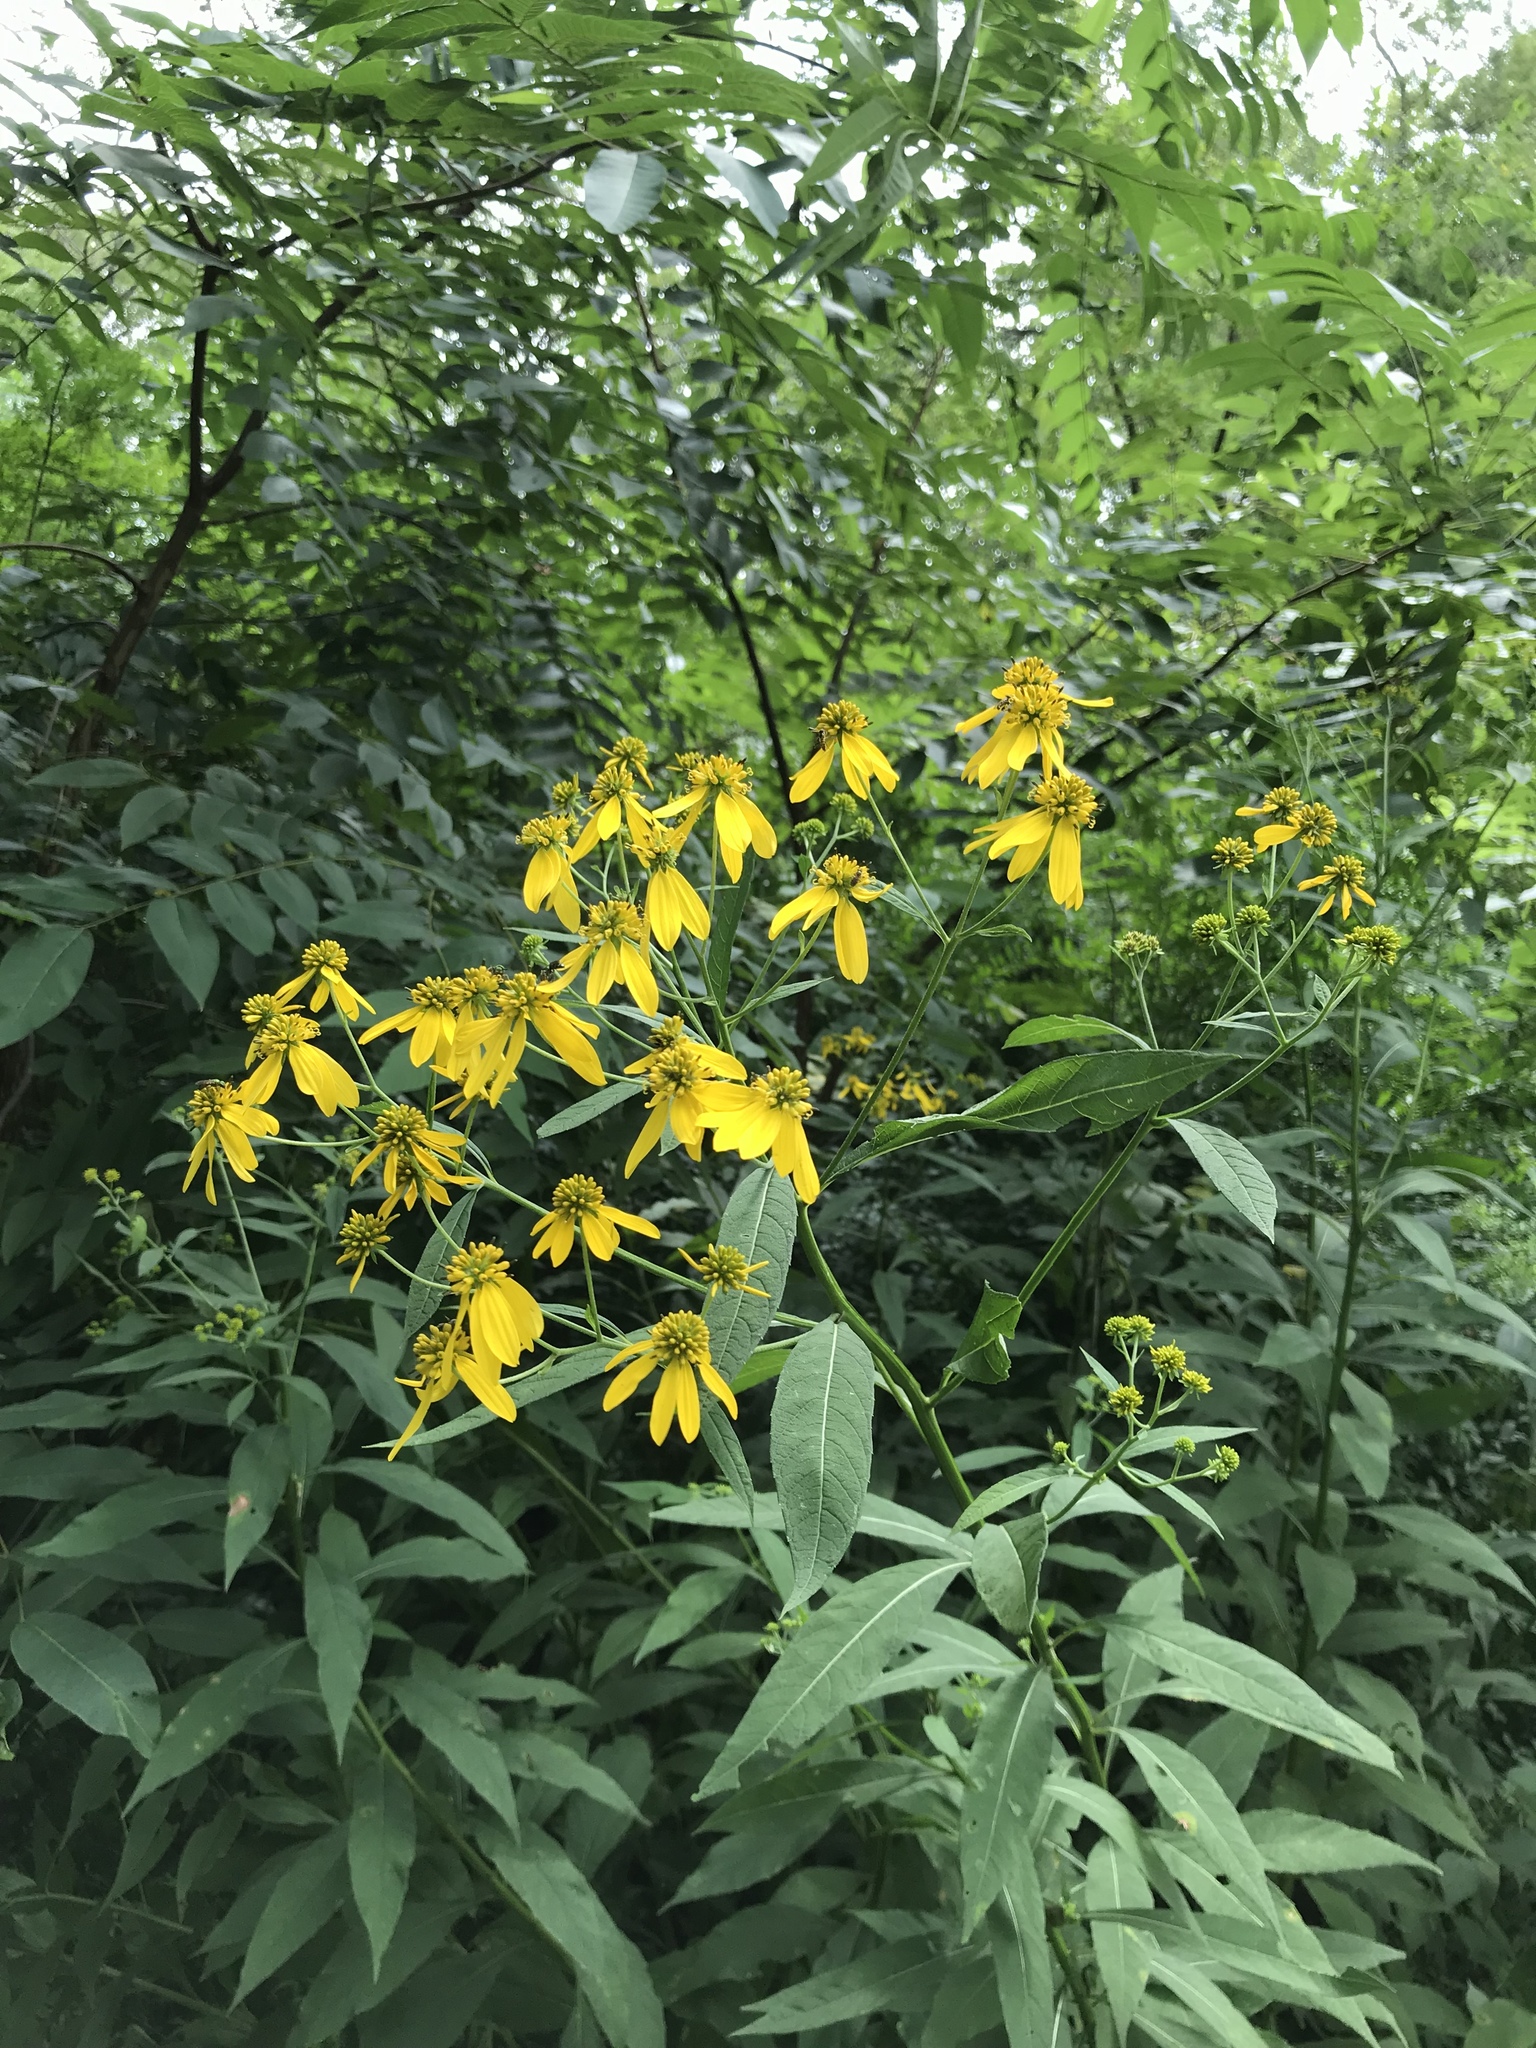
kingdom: Plantae
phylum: Tracheophyta
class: Magnoliopsida
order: Asterales
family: Asteraceae
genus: Verbesina
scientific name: Verbesina alternifolia
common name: Wingstem
